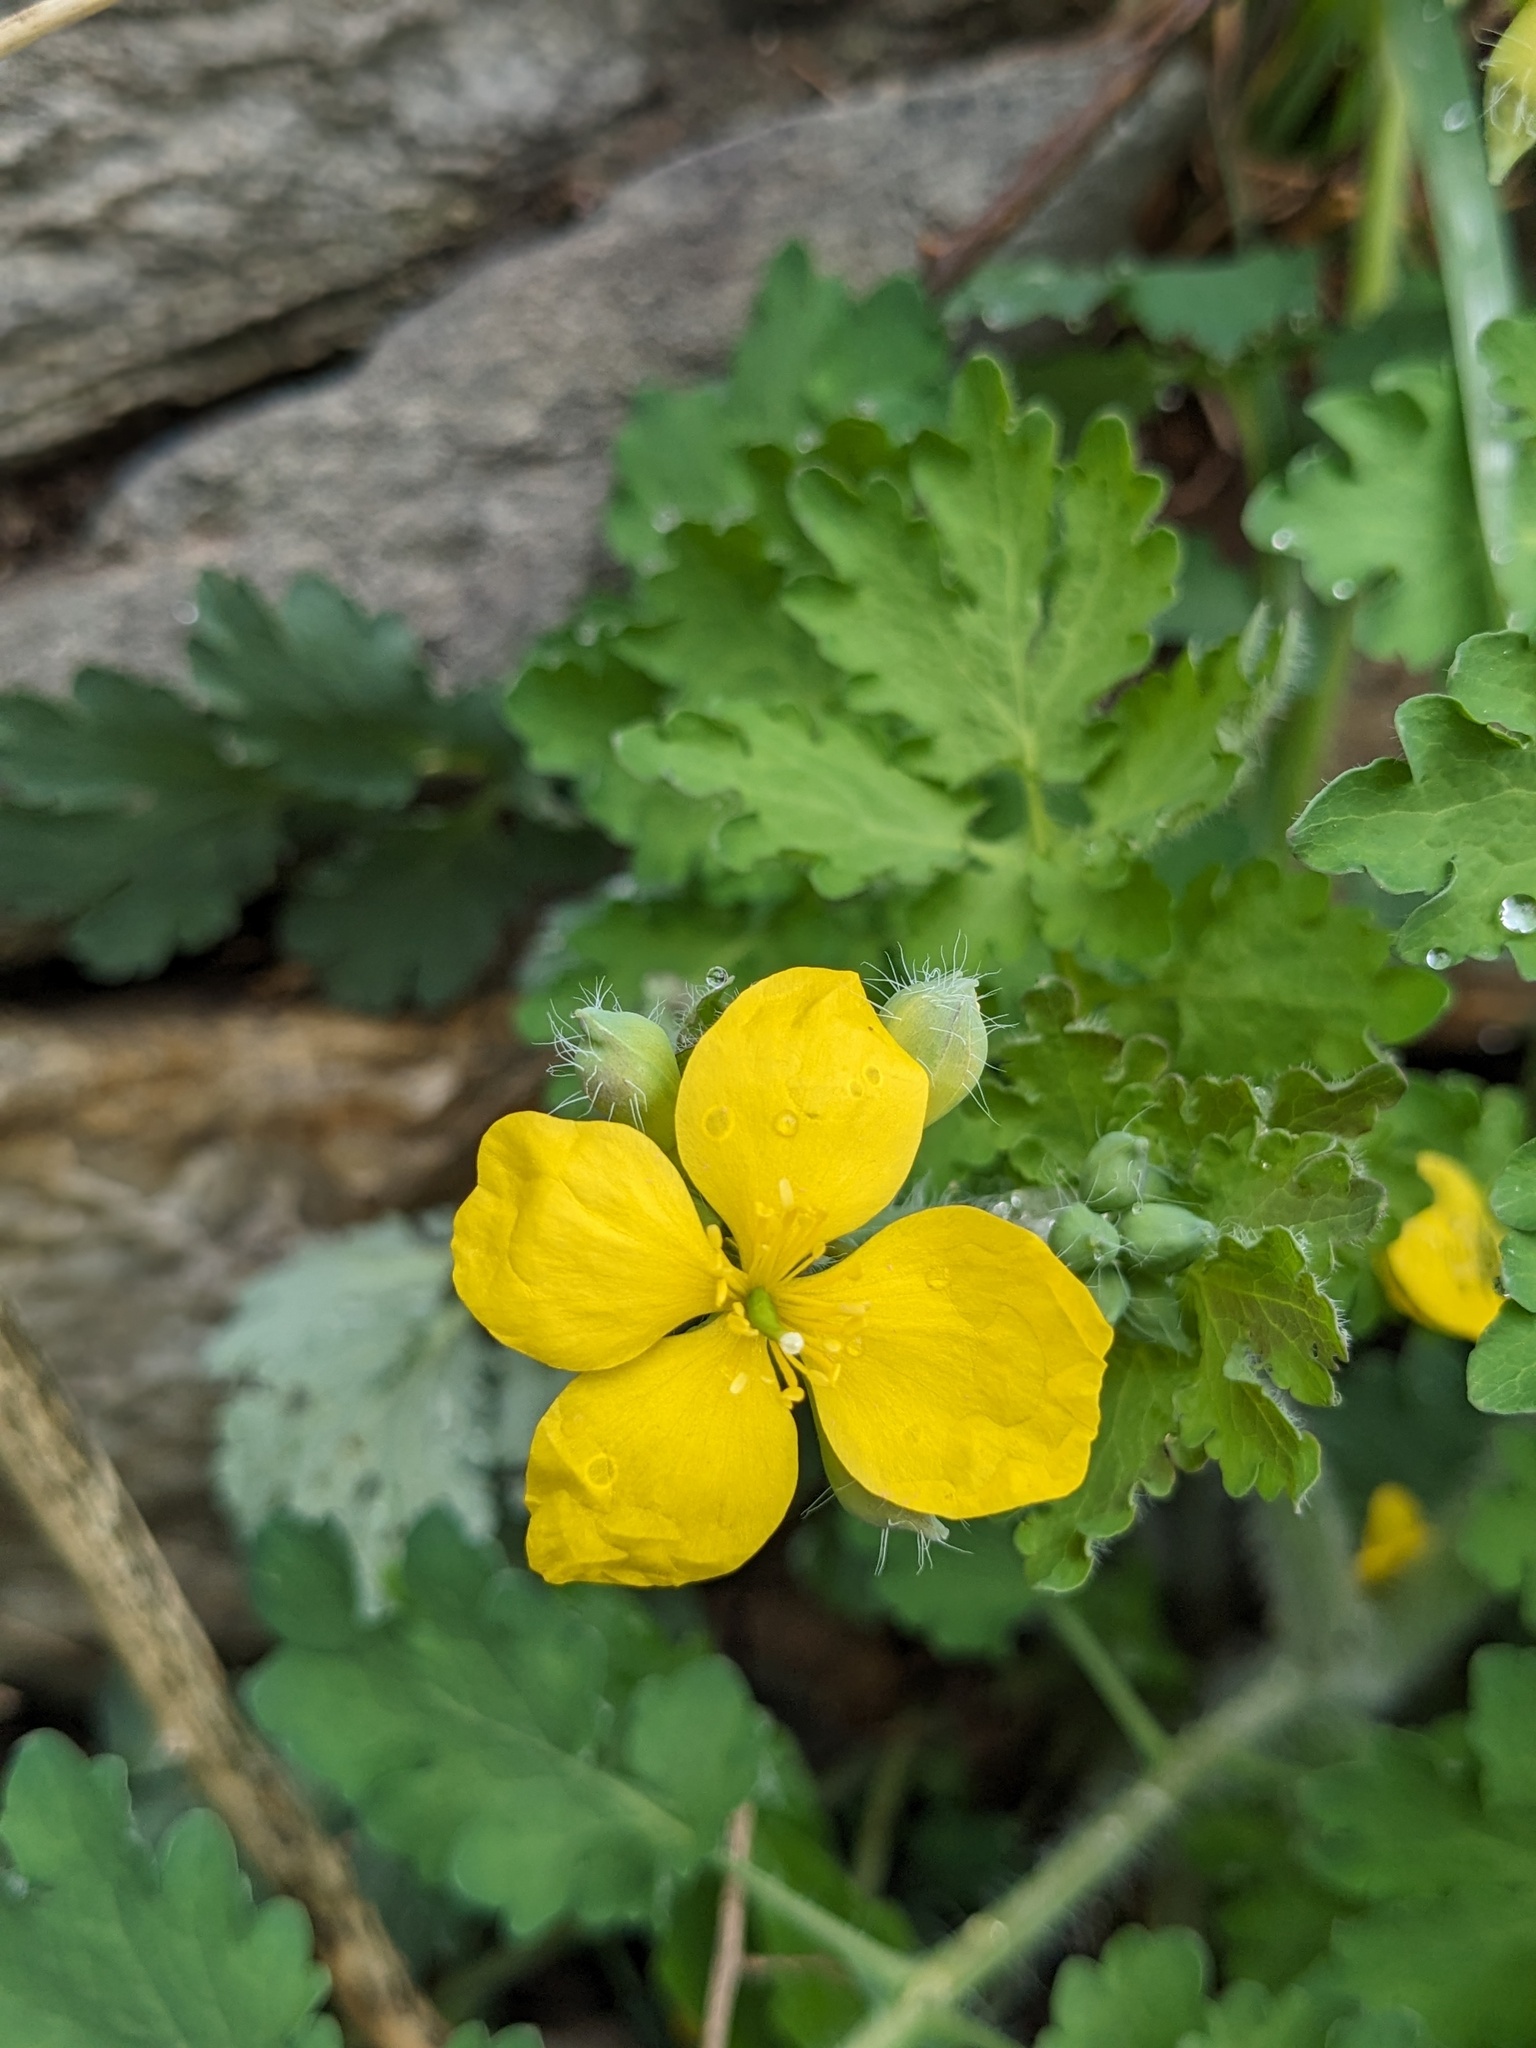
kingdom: Plantae
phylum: Tracheophyta
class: Magnoliopsida
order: Ranunculales
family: Papaveraceae
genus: Chelidonium
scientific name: Chelidonium majus
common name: Greater celandine
